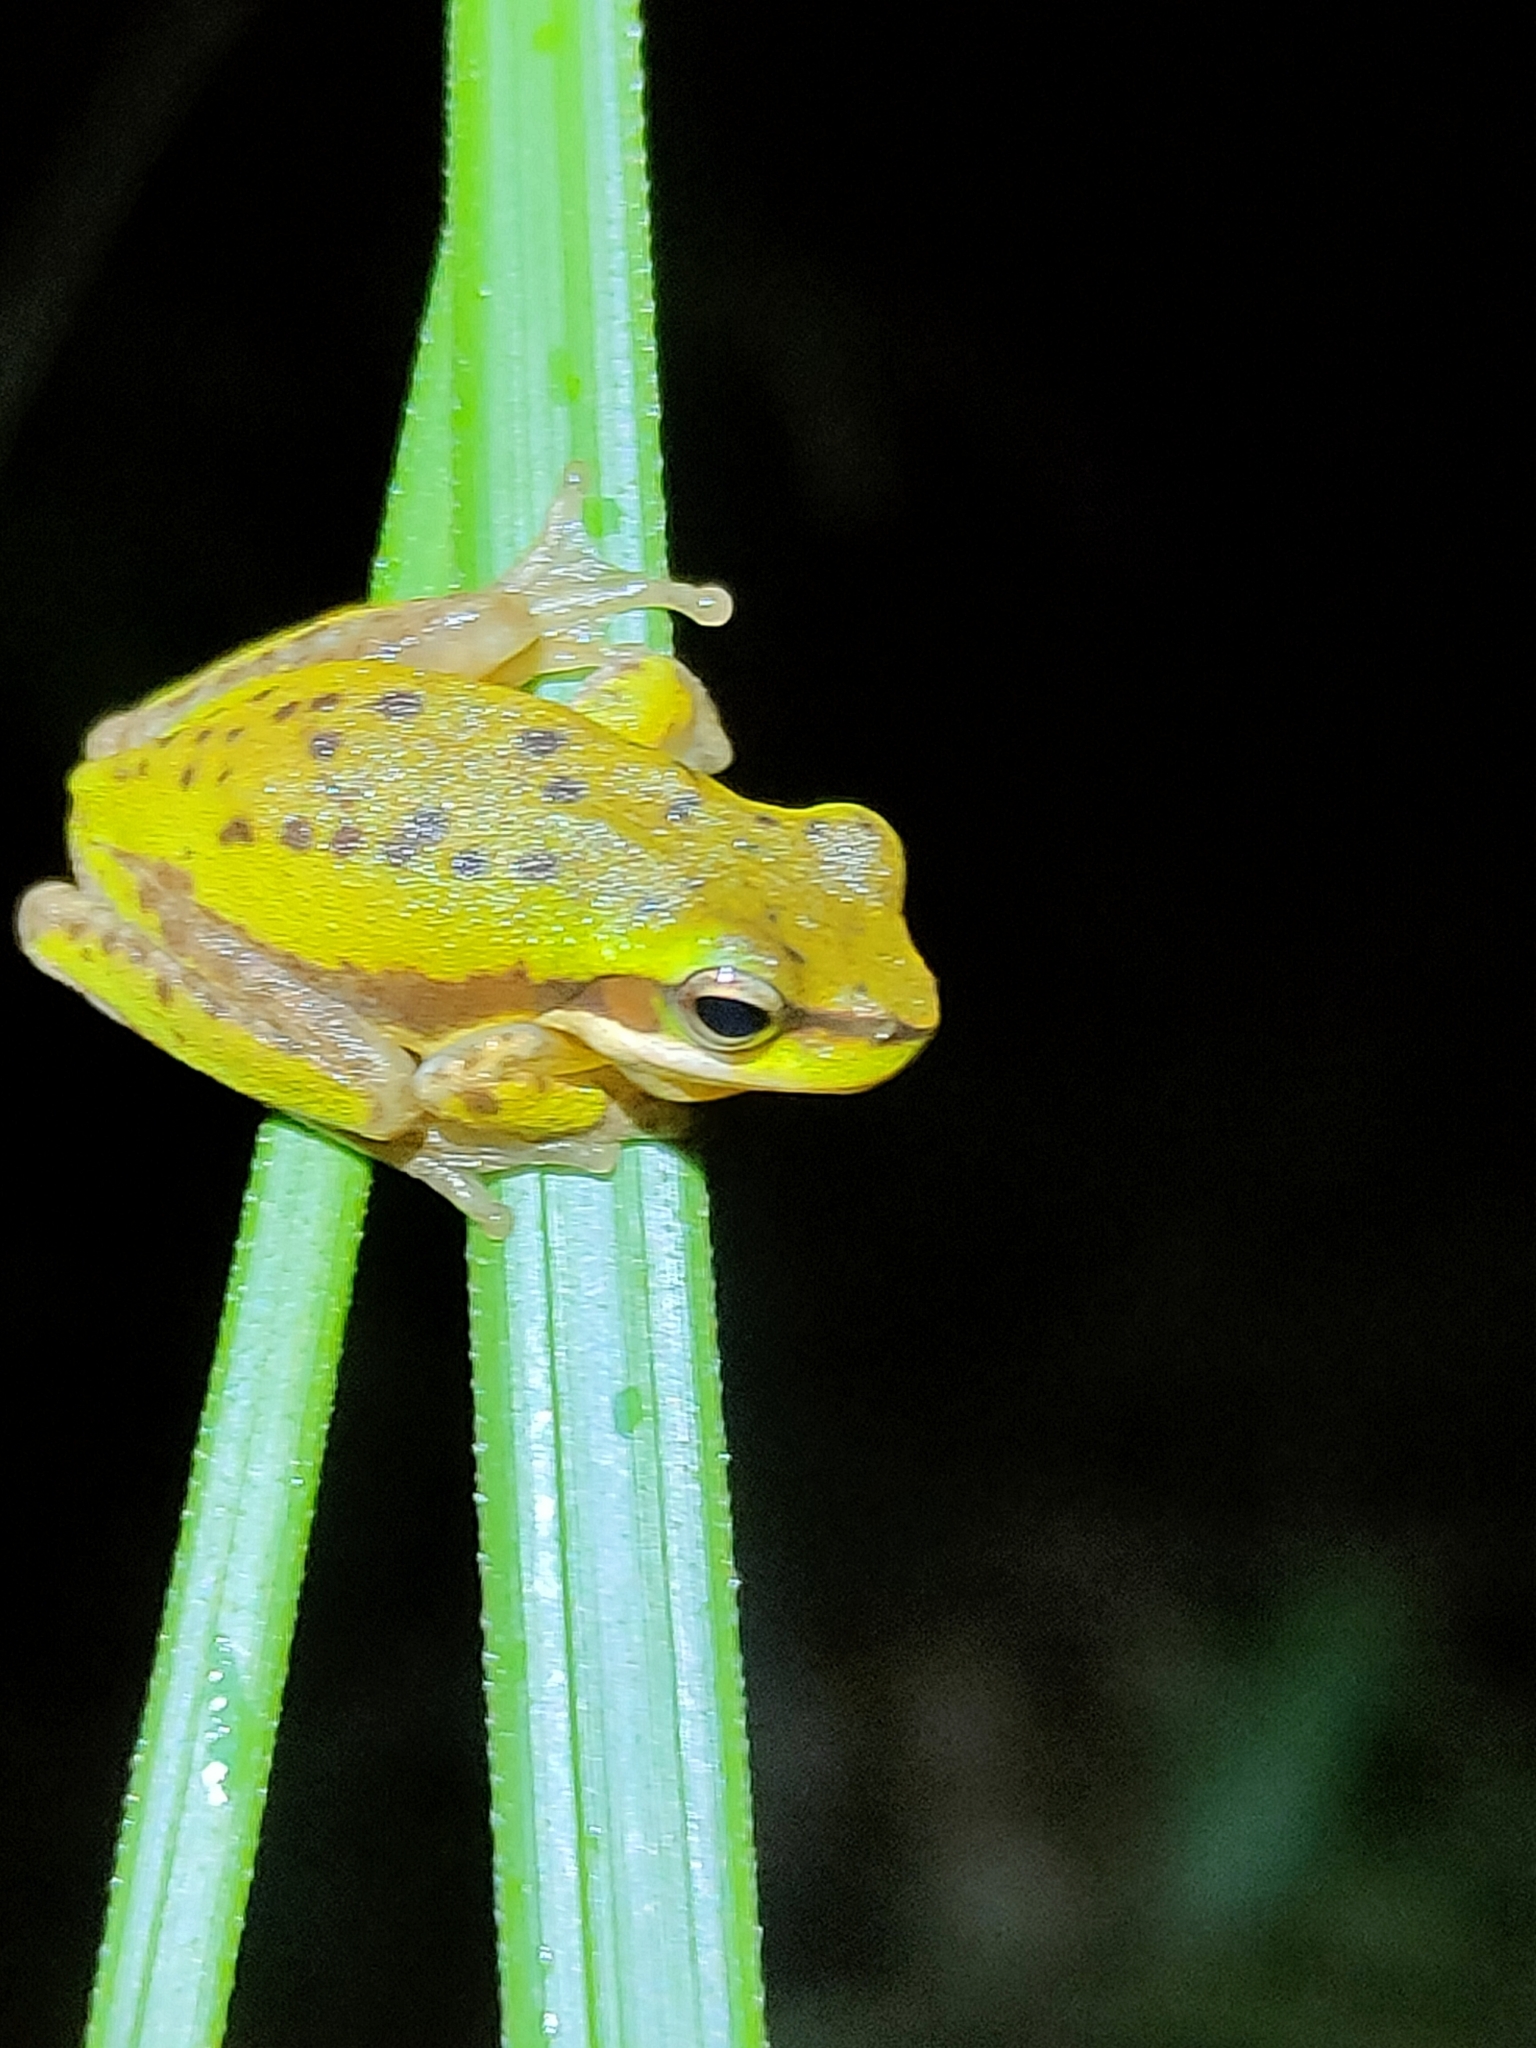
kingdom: Animalia
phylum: Chordata
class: Amphibia
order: Anura
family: Pelodryadidae
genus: Litoria
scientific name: Litoria fallax
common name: Eastern dwarf treefrog
